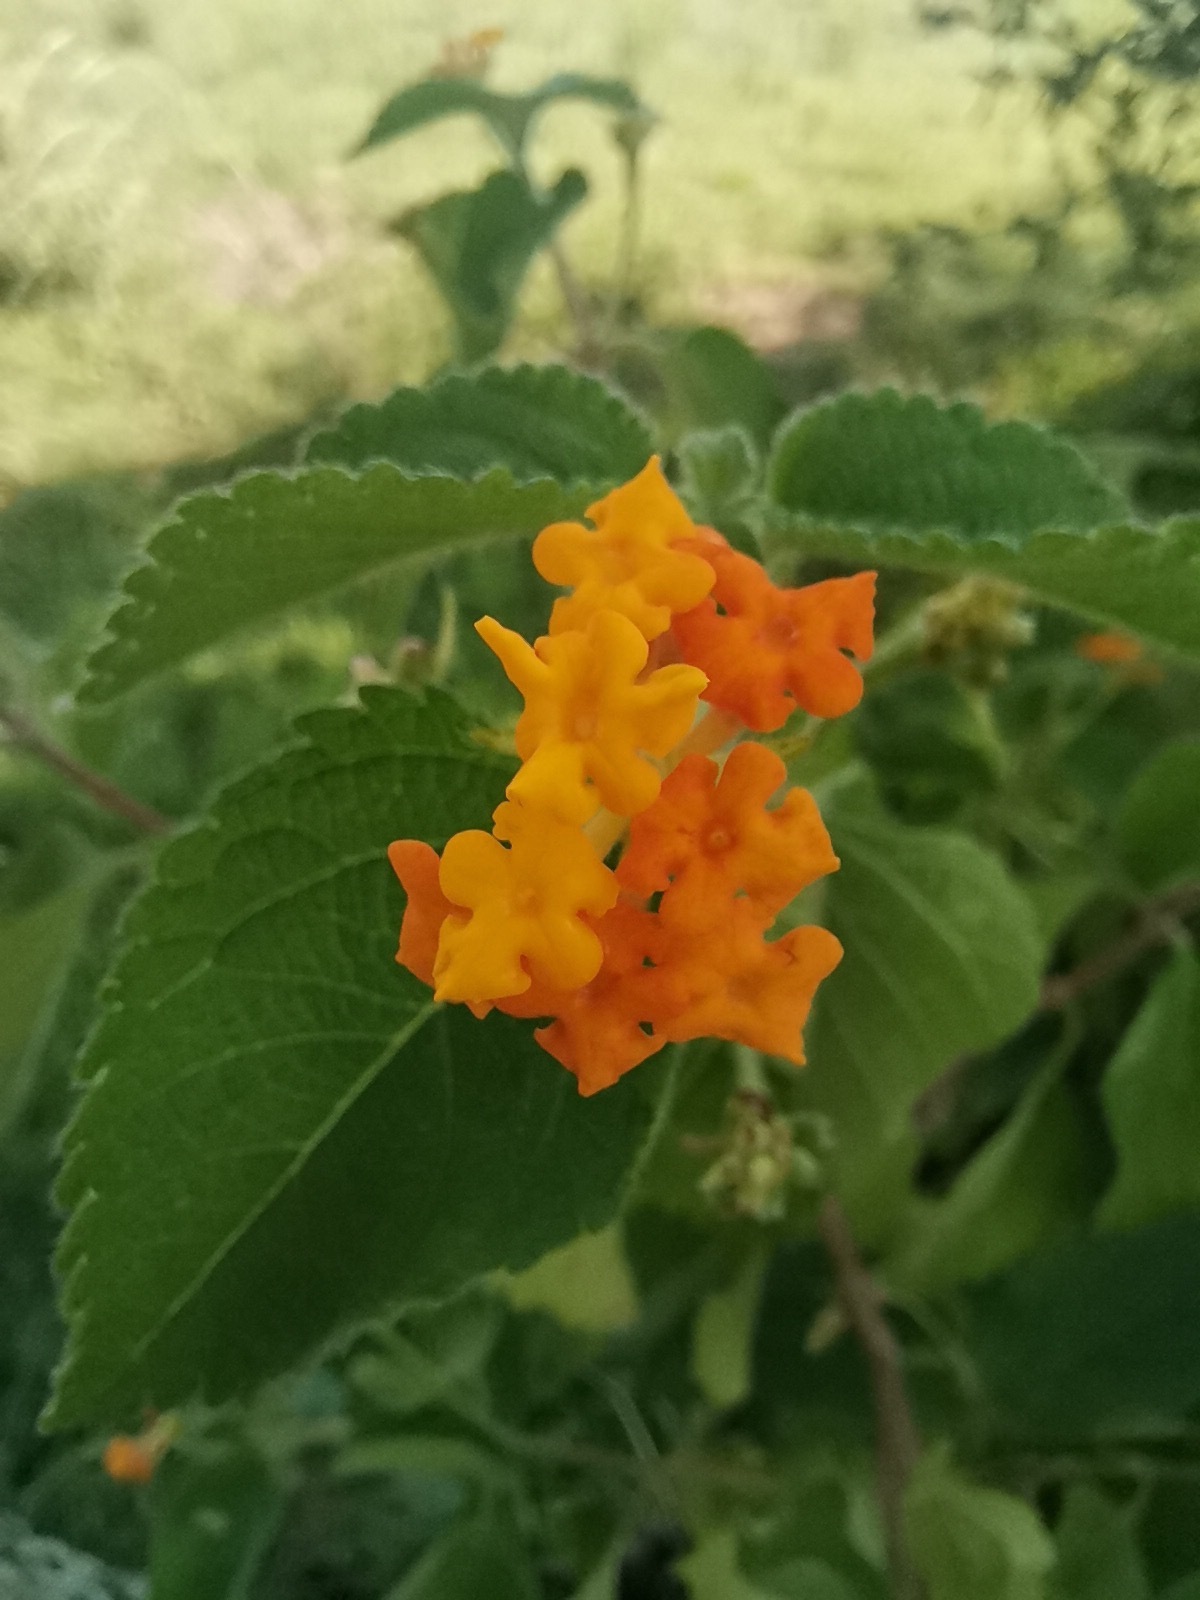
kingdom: Plantae
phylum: Tracheophyta
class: Magnoliopsida
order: Lamiales
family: Verbenaceae
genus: Lantana
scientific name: Lantana camara
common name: Lantana
